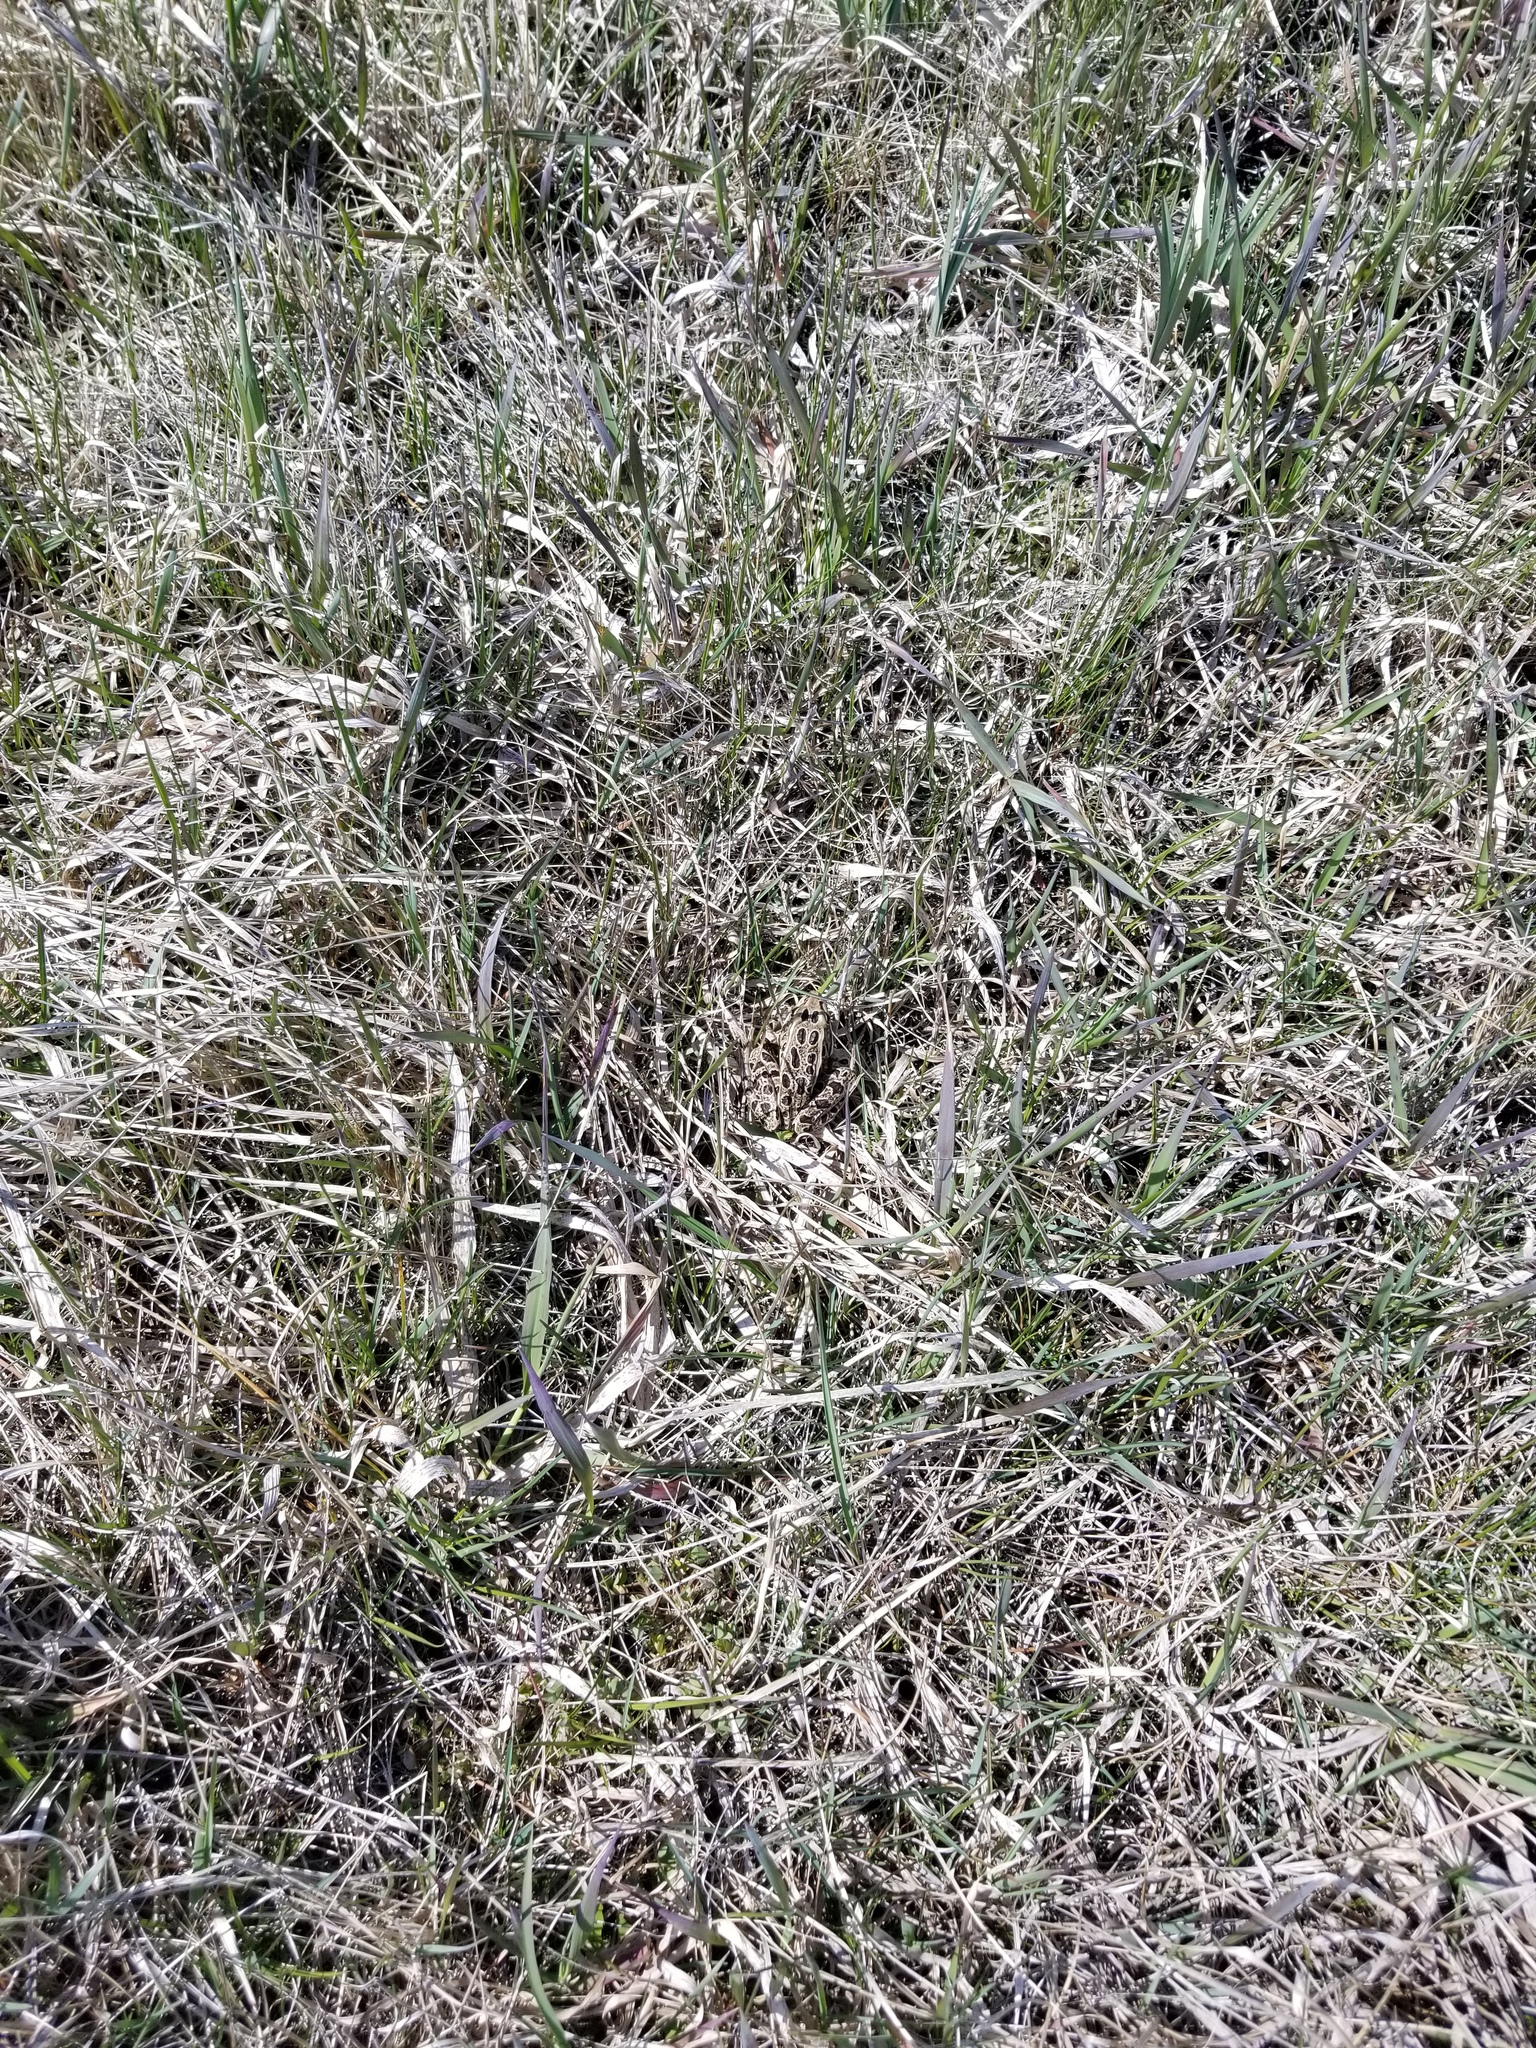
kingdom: Animalia
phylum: Chordata
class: Amphibia
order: Anura
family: Ranidae
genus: Lithobates
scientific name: Lithobates pipiens
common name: Northern leopard frog
